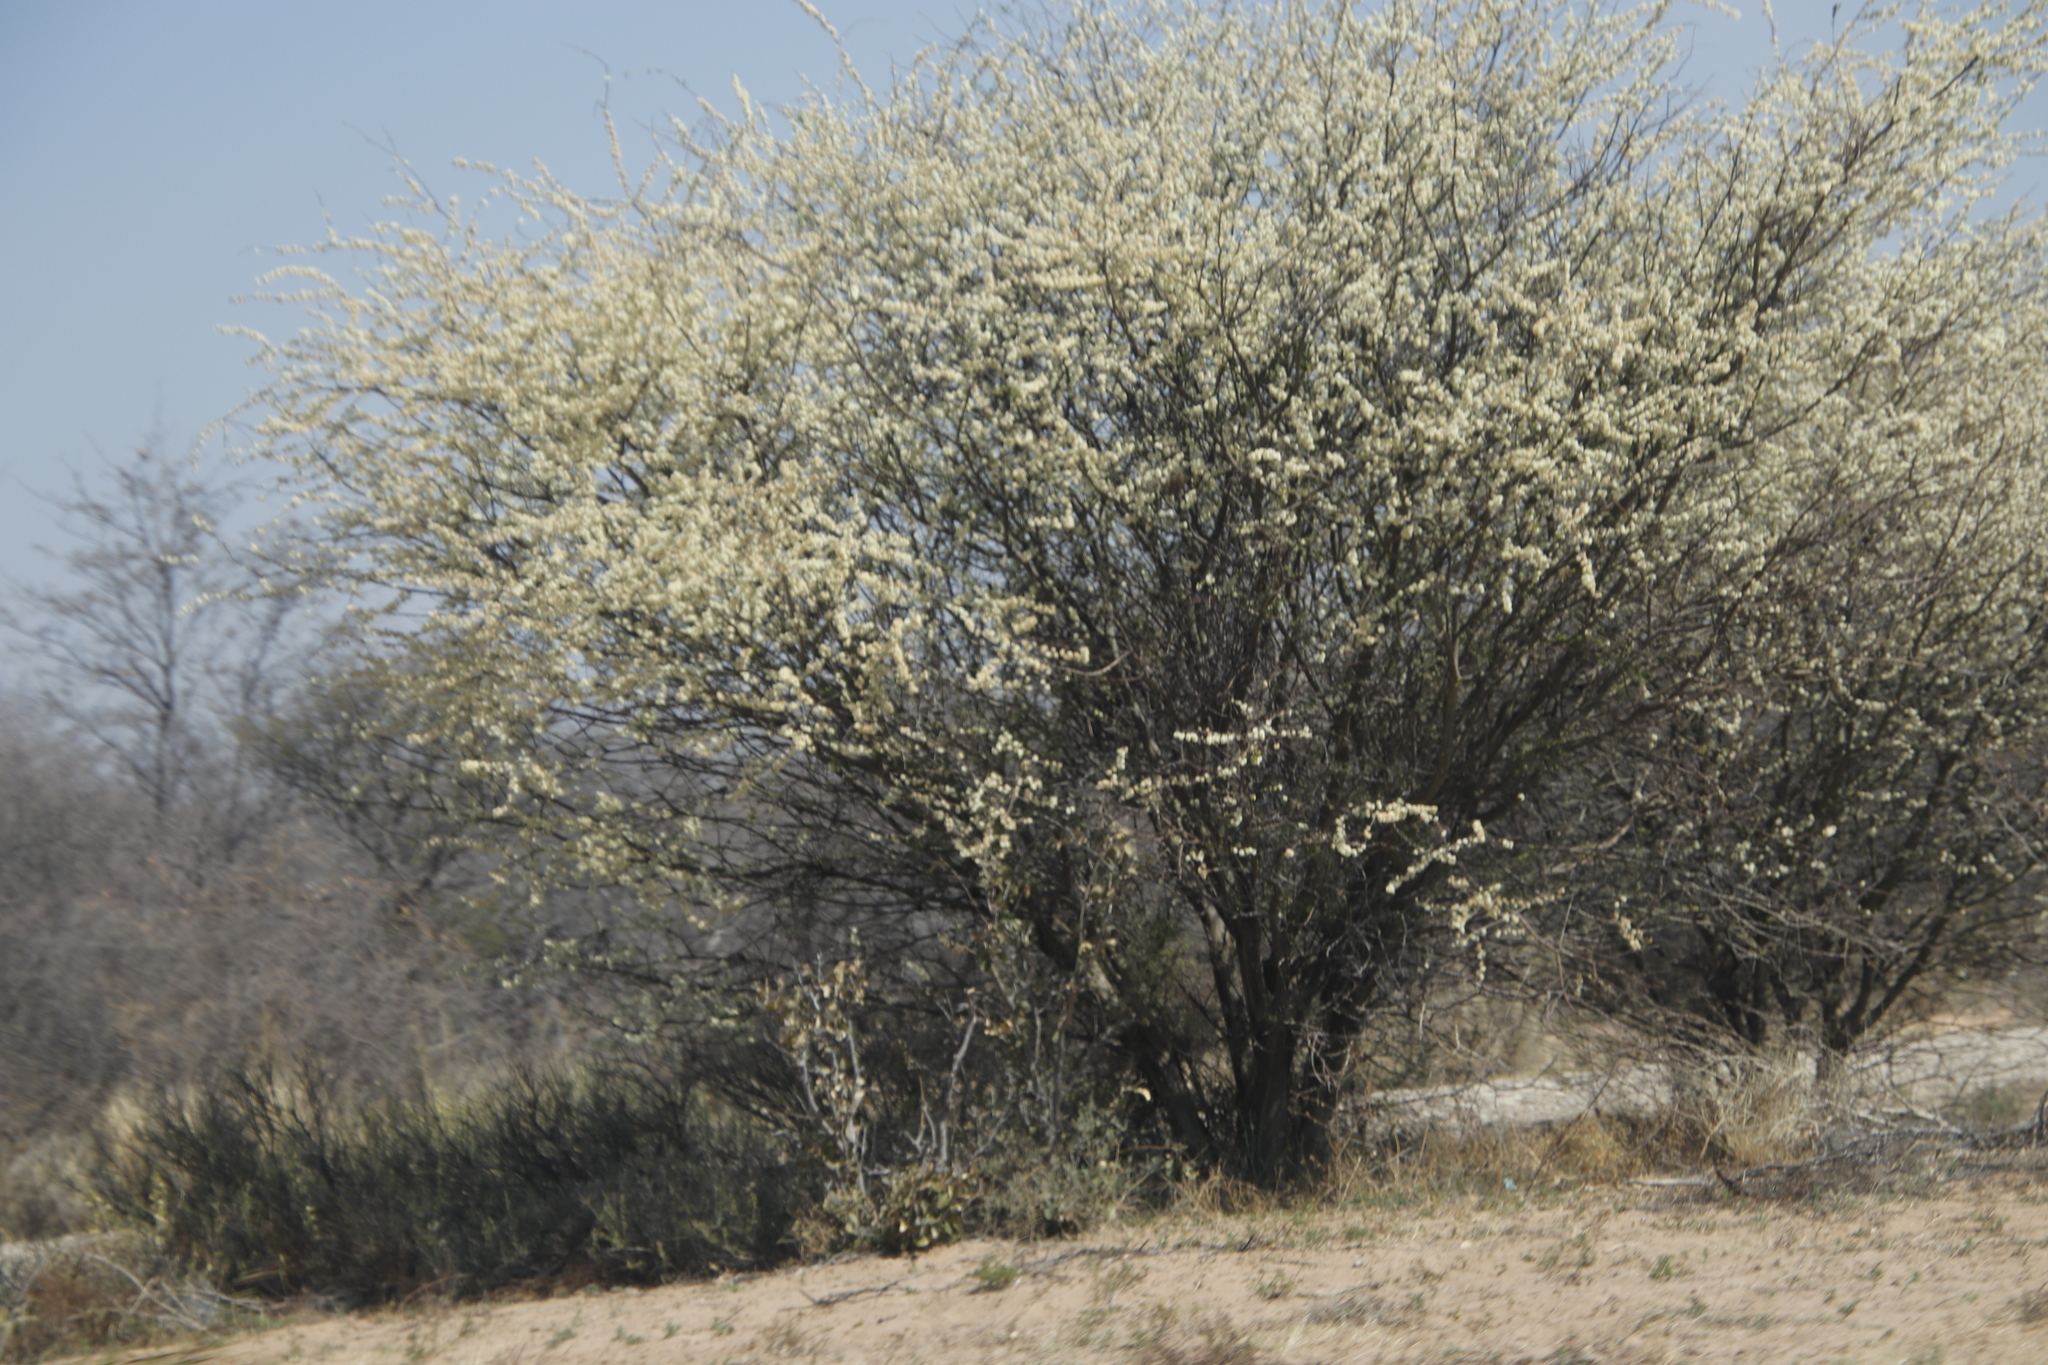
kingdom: Plantae
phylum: Tracheophyta
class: Magnoliopsida
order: Fabales
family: Fabaceae
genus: Senegalia
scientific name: Senegalia mellifera
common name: Hookthorn
